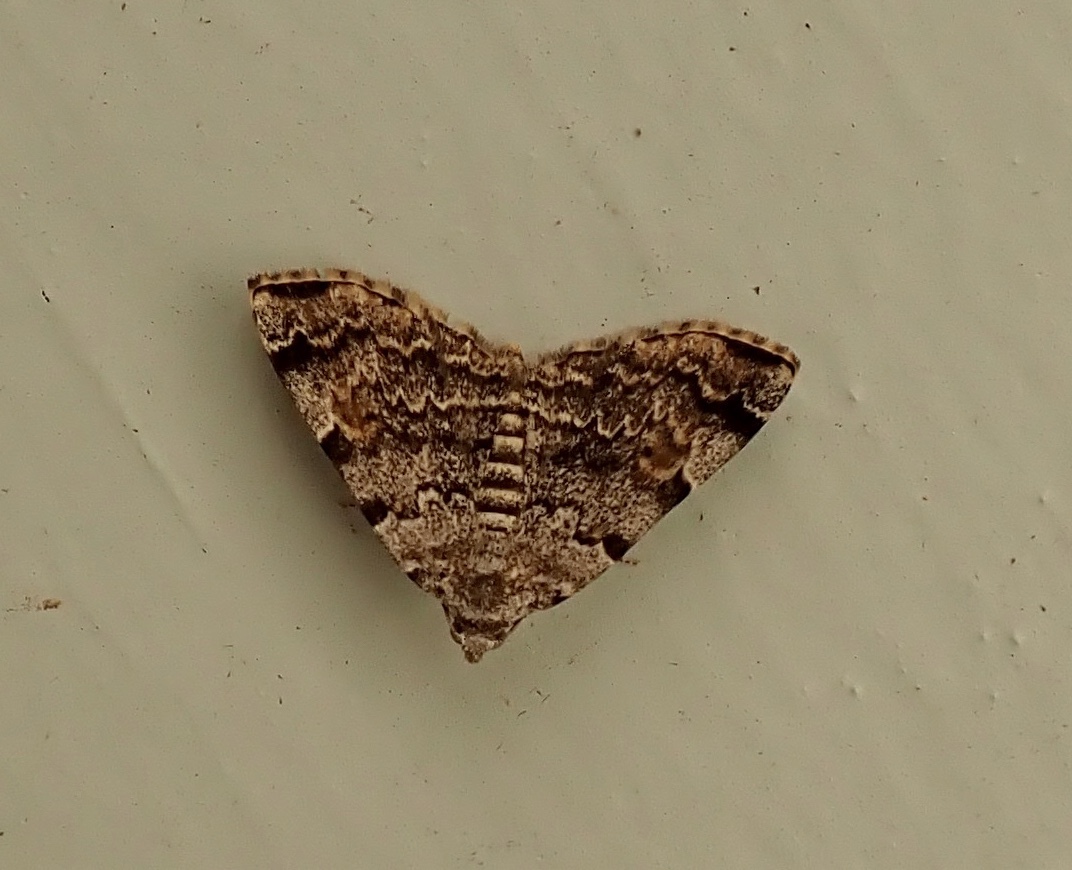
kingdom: Animalia
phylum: Arthropoda
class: Insecta
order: Lepidoptera
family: Erebidae
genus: Idia
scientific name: Idia americalis
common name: American idia moth
